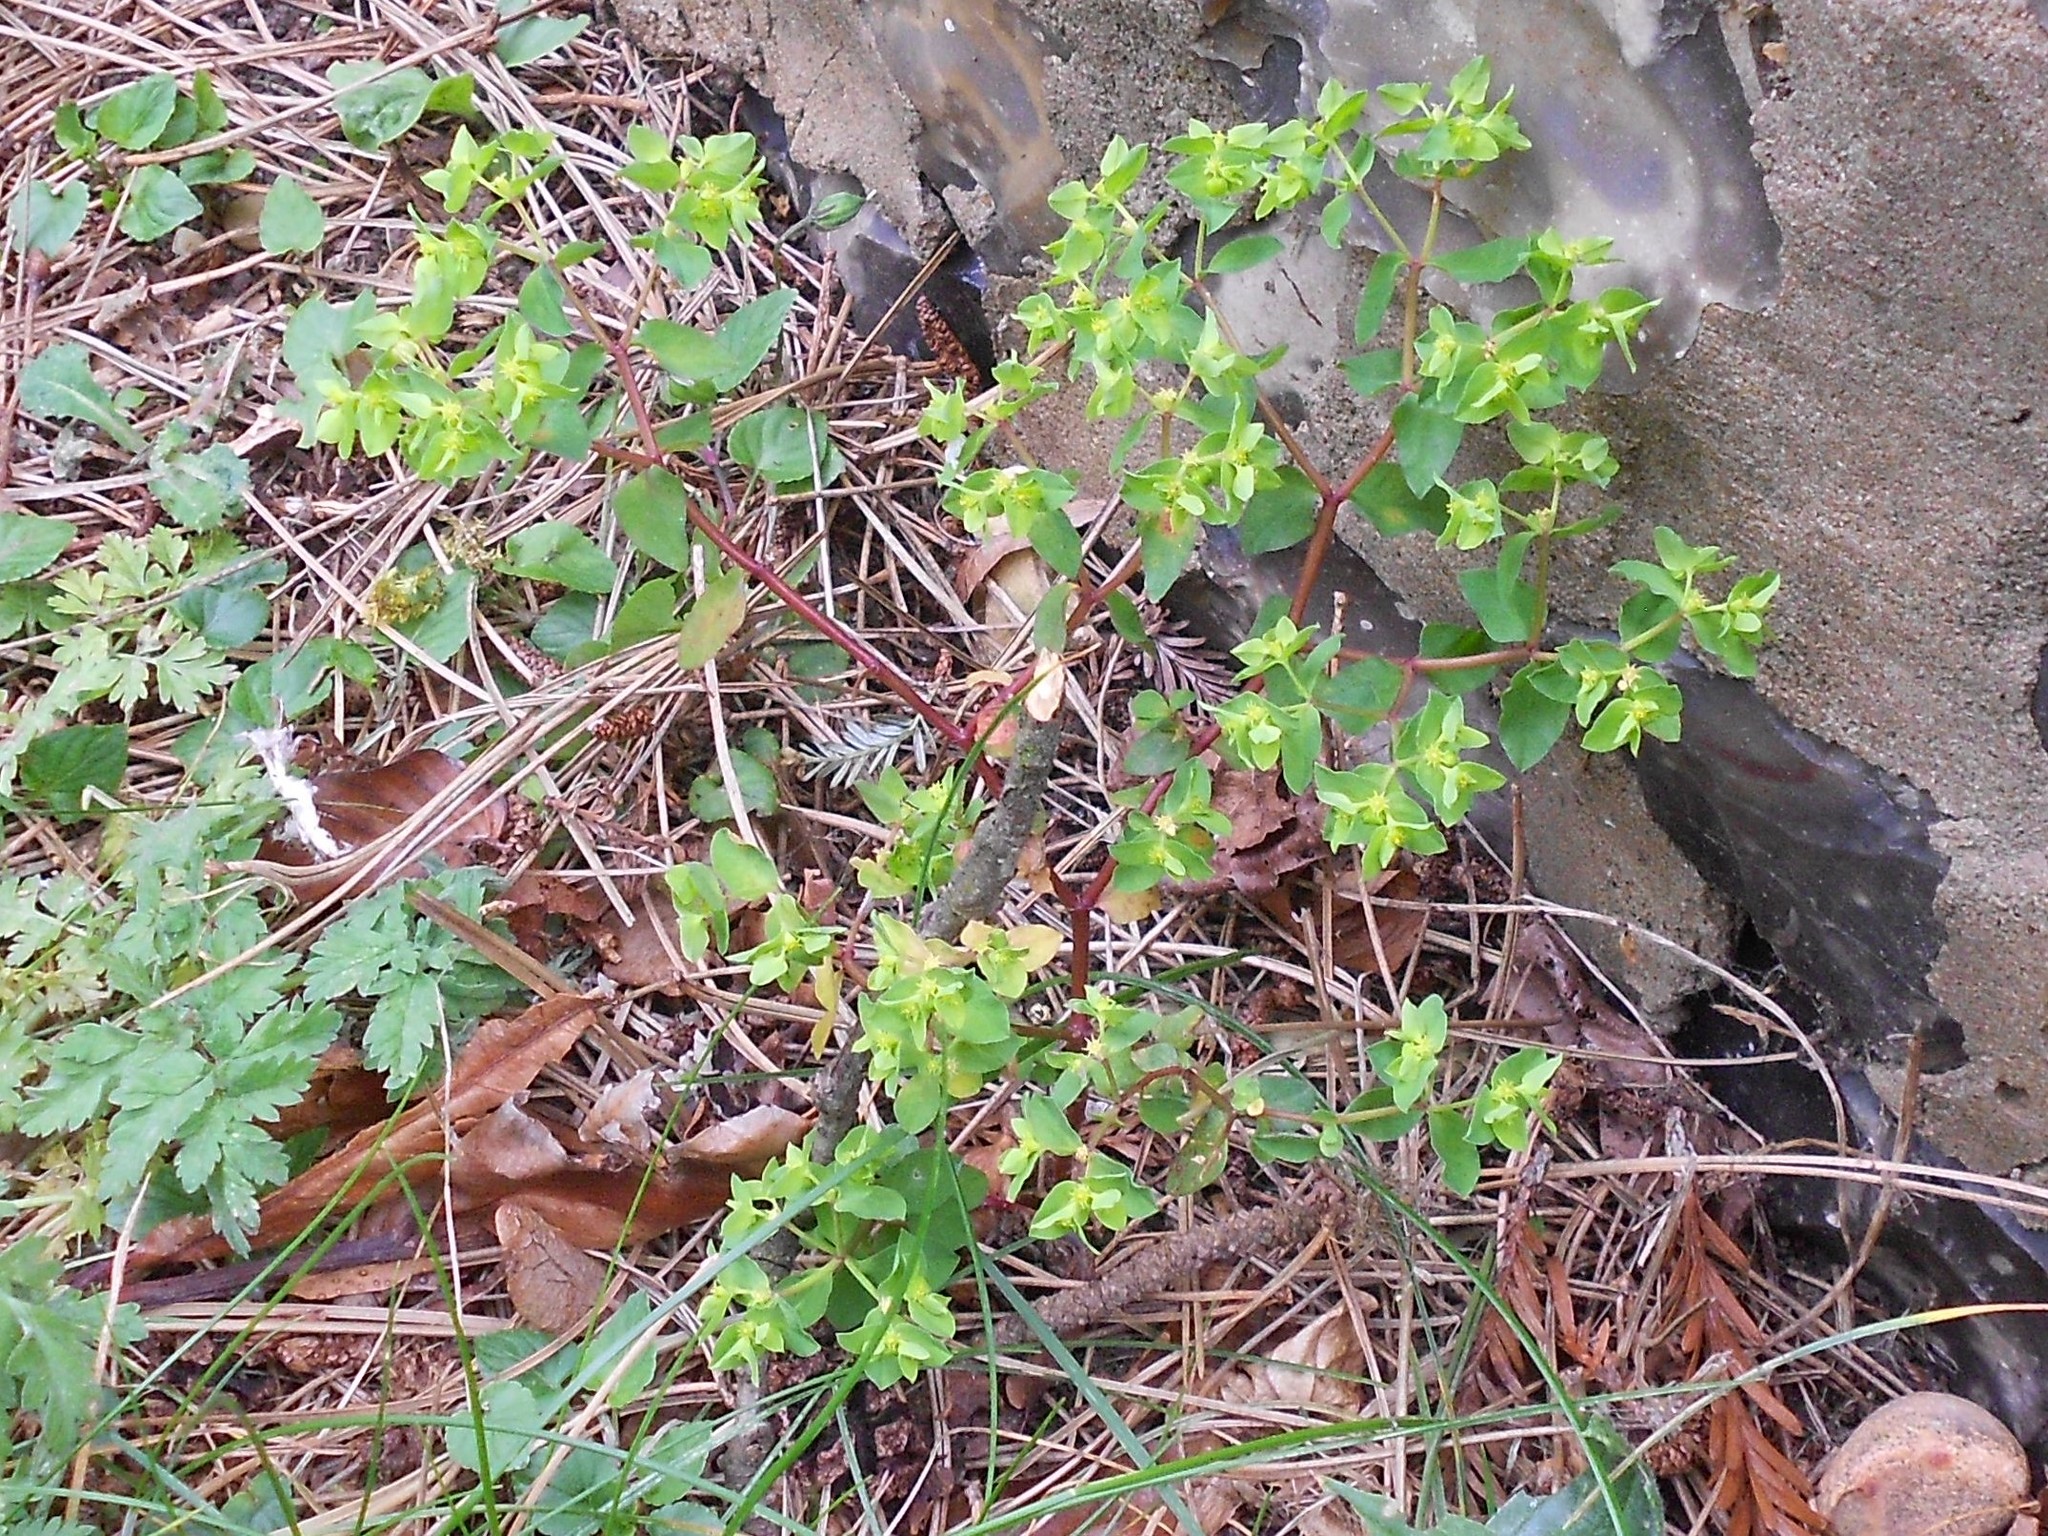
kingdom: Plantae
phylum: Tracheophyta
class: Magnoliopsida
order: Malpighiales
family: Euphorbiaceae
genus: Euphorbia
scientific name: Euphorbia peplus
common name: Petty spurge
